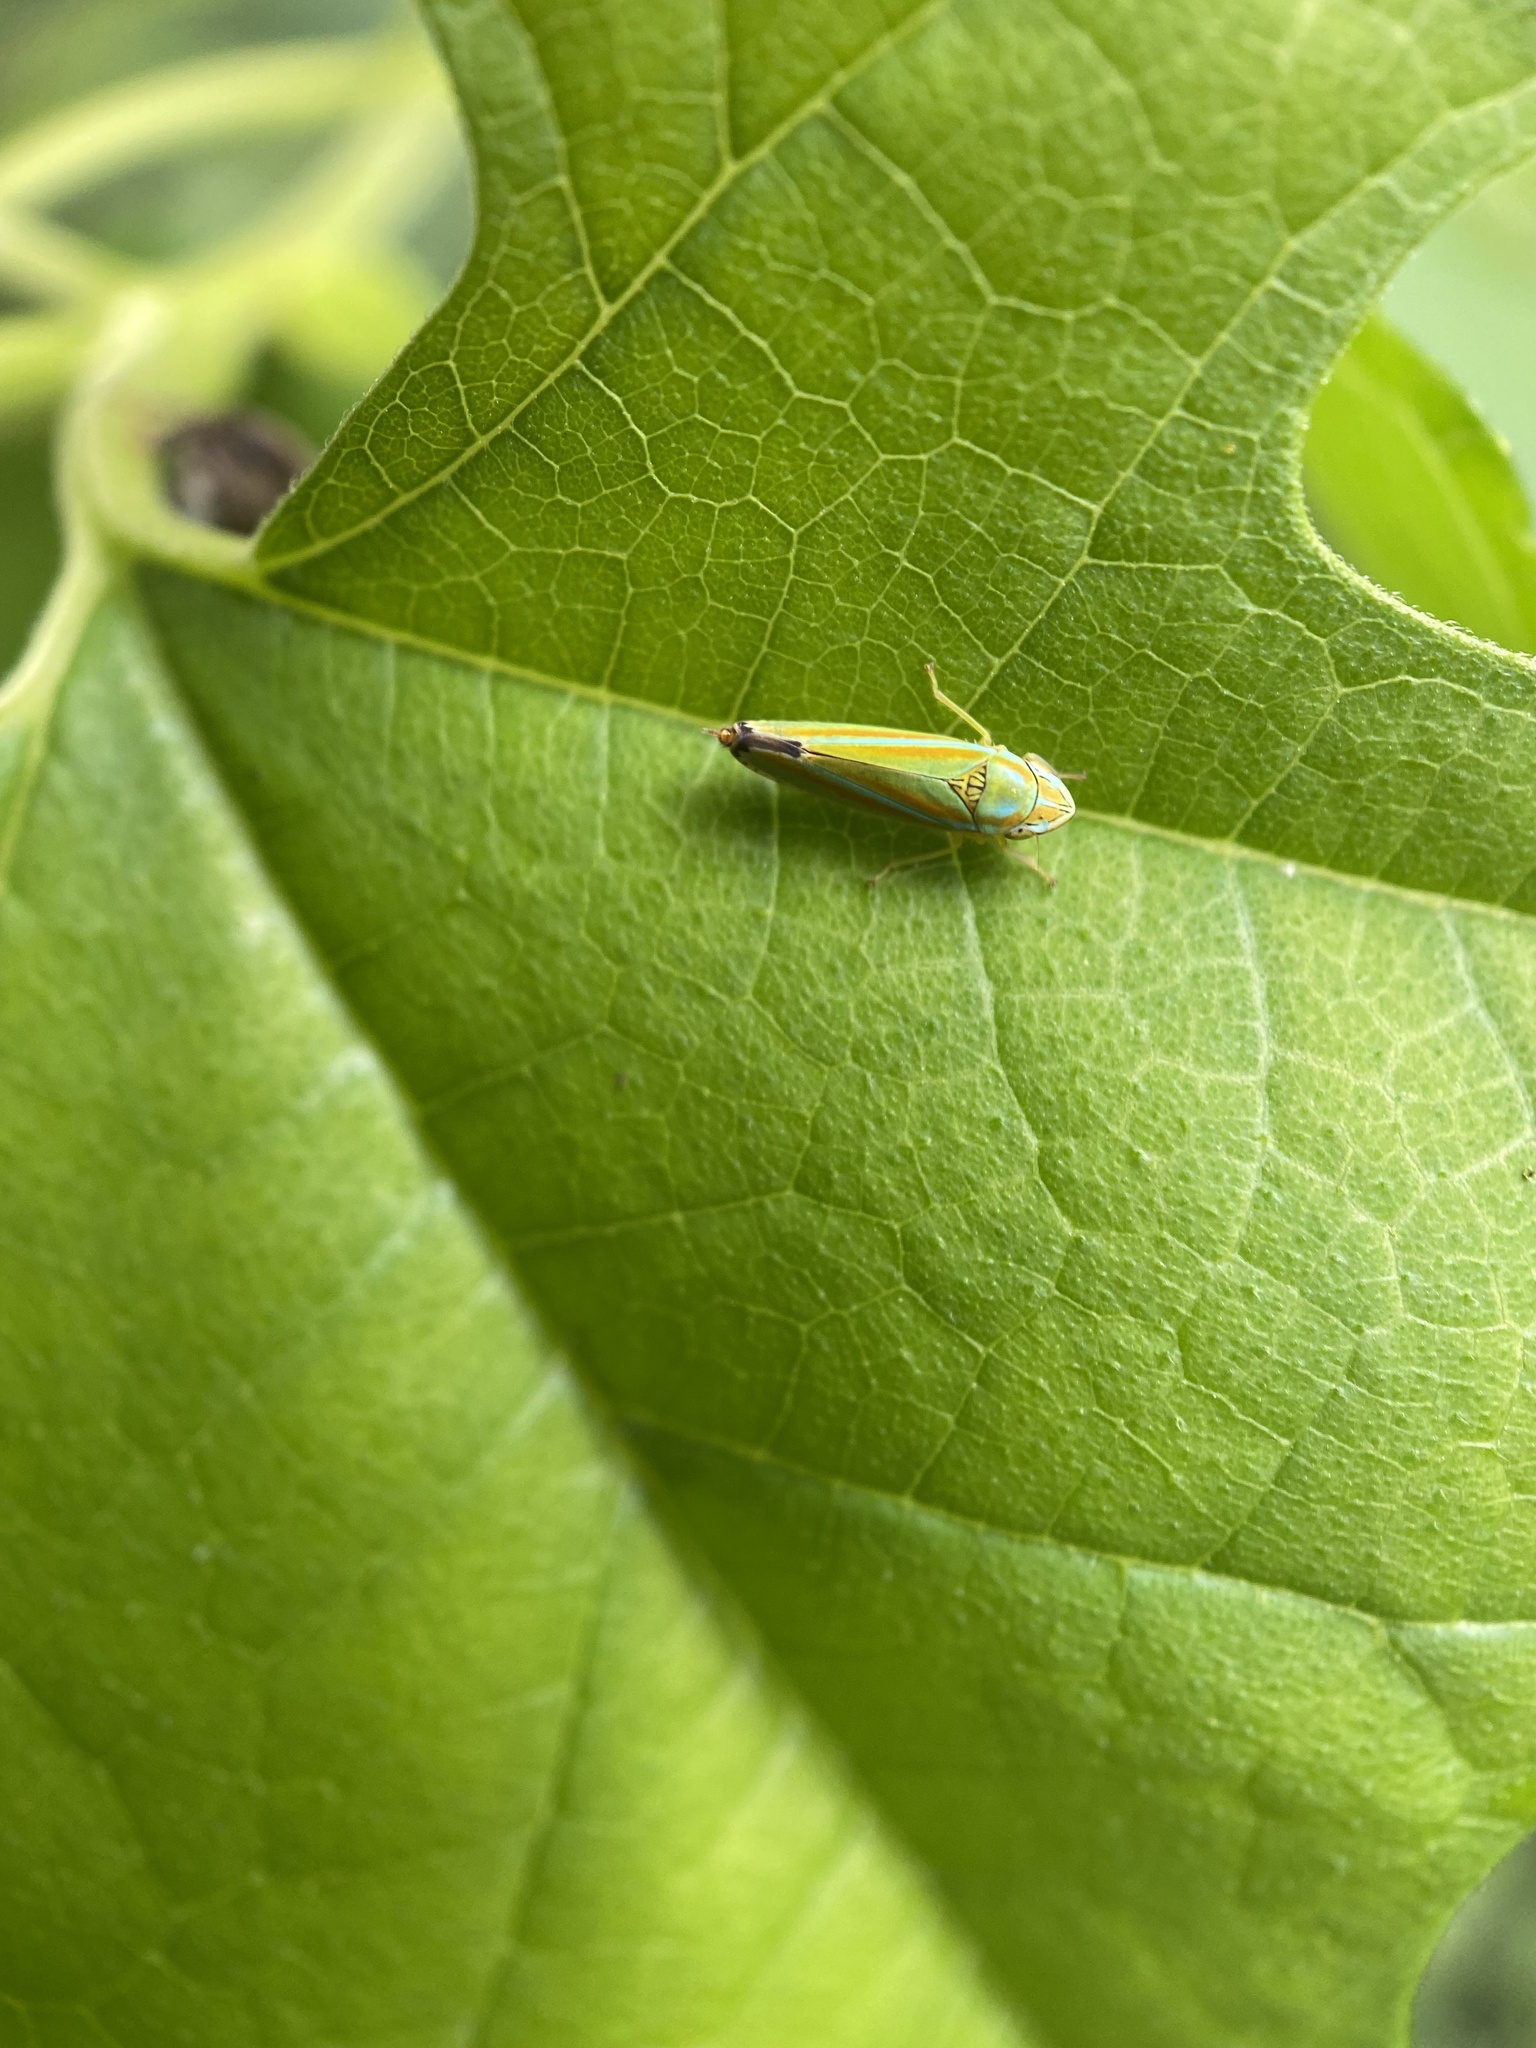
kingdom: Animalia
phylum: Arthropoda
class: Insecta
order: Hemiptera
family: Cicadellidae
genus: Graphocephala
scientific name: Graphocephala versuta
